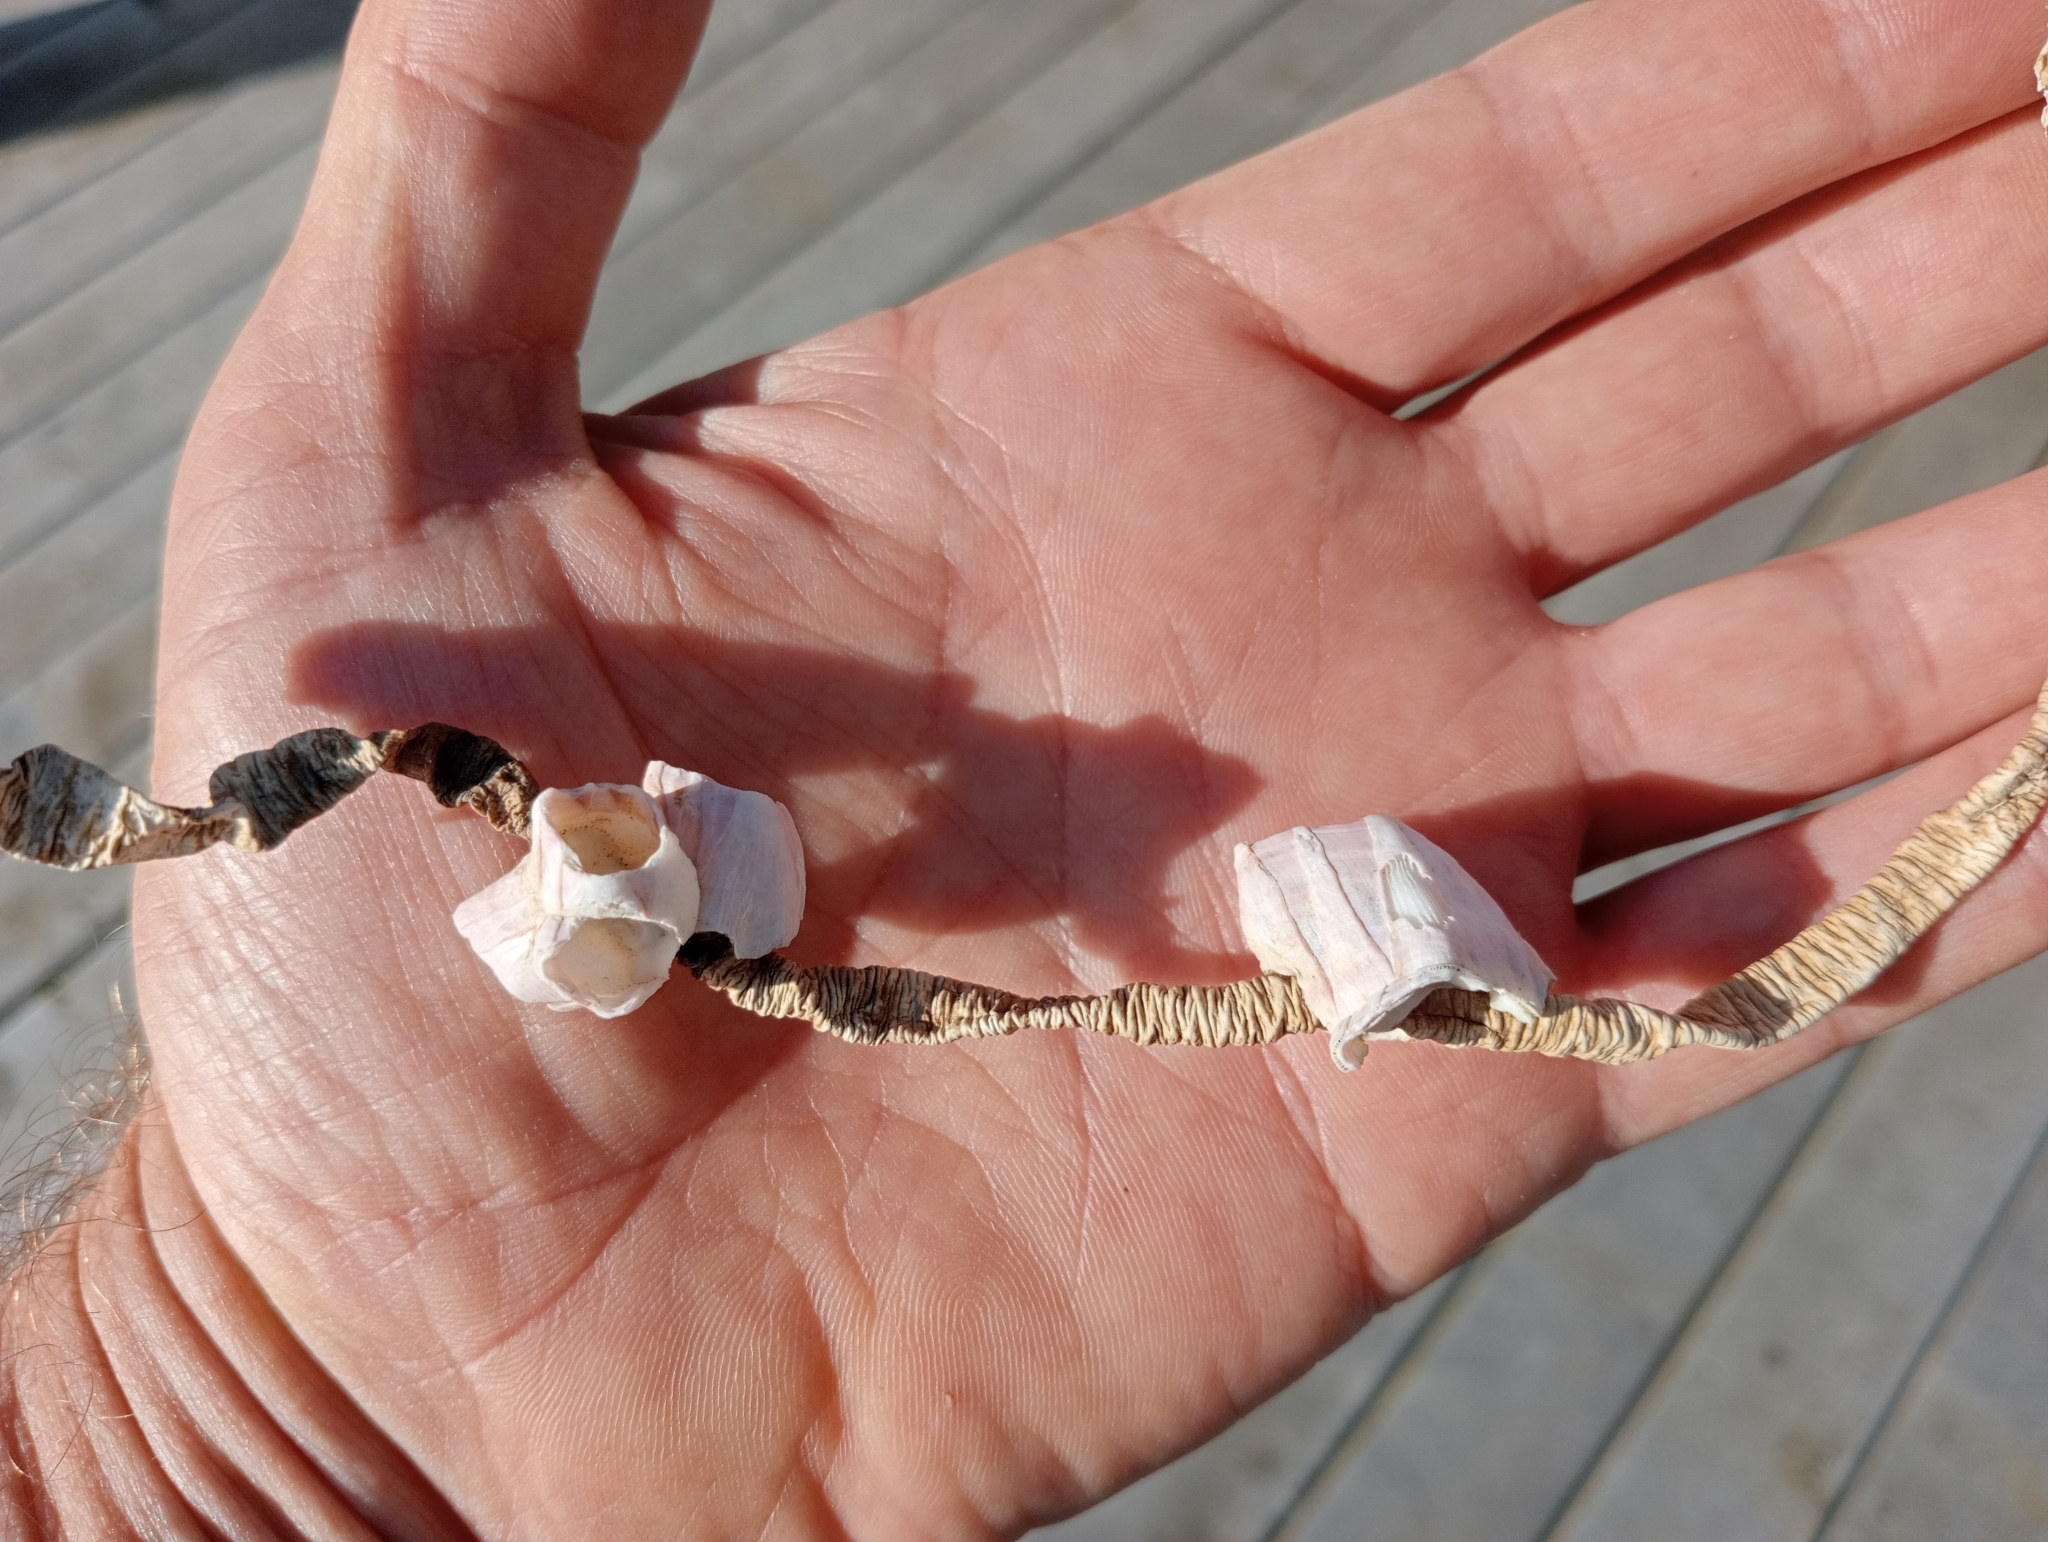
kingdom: Animalia
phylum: Arthropoda
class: Maxillopoda
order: Sessilia
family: Balanidae
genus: Notomegabalanus
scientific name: Notomegabalanus decorus
